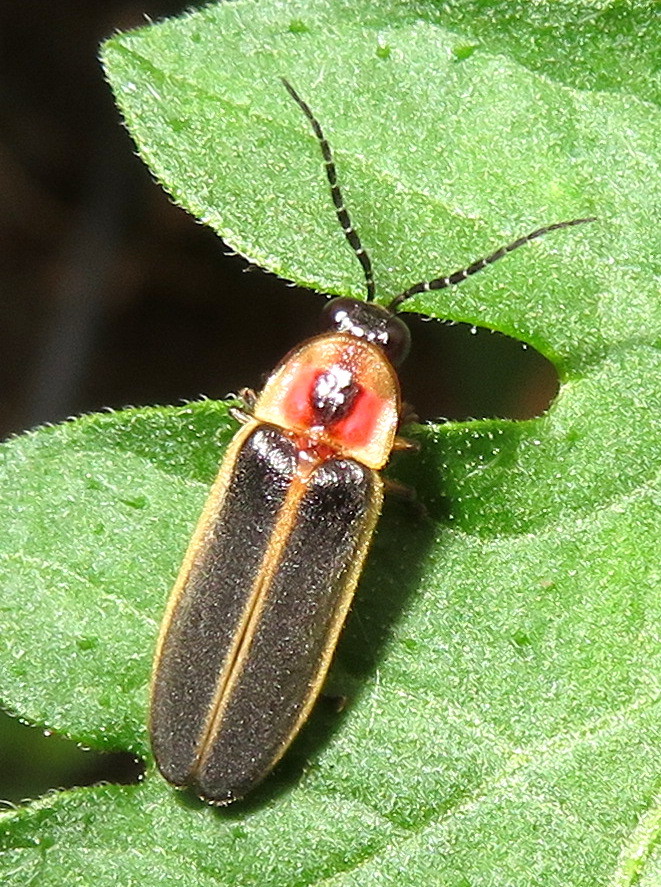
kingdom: Animalia
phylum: Arthropoda
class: Insecta
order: Coleoptera
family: Lampyridae
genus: Photinus
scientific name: Photinus pyralis
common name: Big dipper firefly
